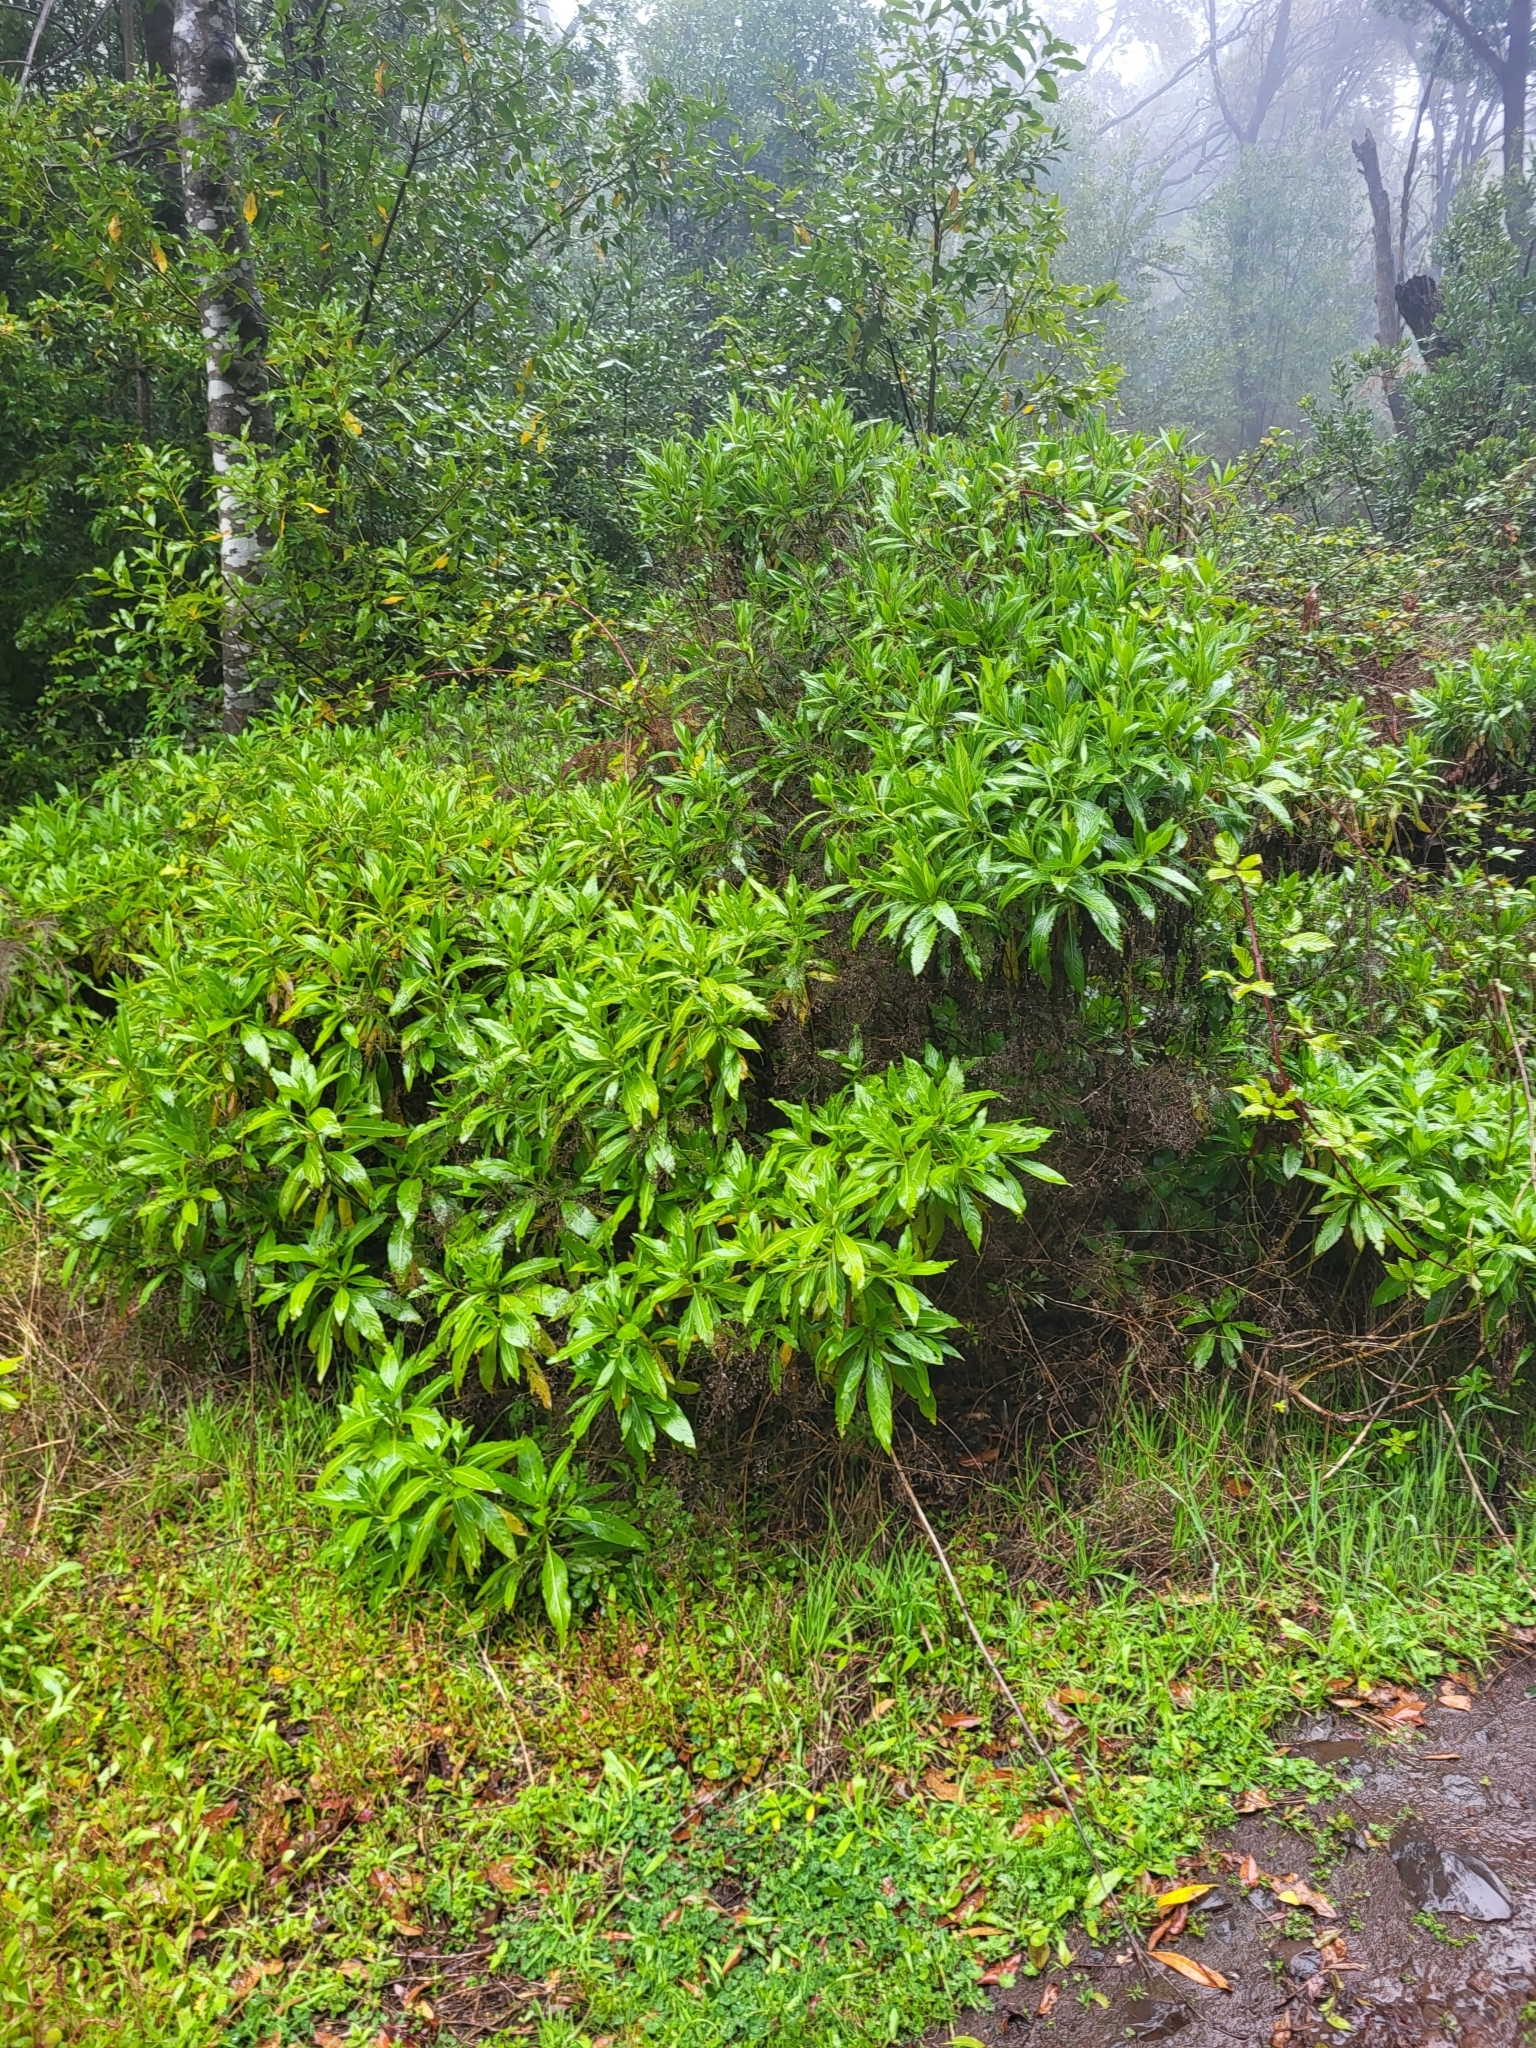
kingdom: Plantae
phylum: Tracheophyta
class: Magnoliopsida
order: Gentianales
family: Rubiaceae
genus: Phyllis
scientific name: Phyllis nobla
